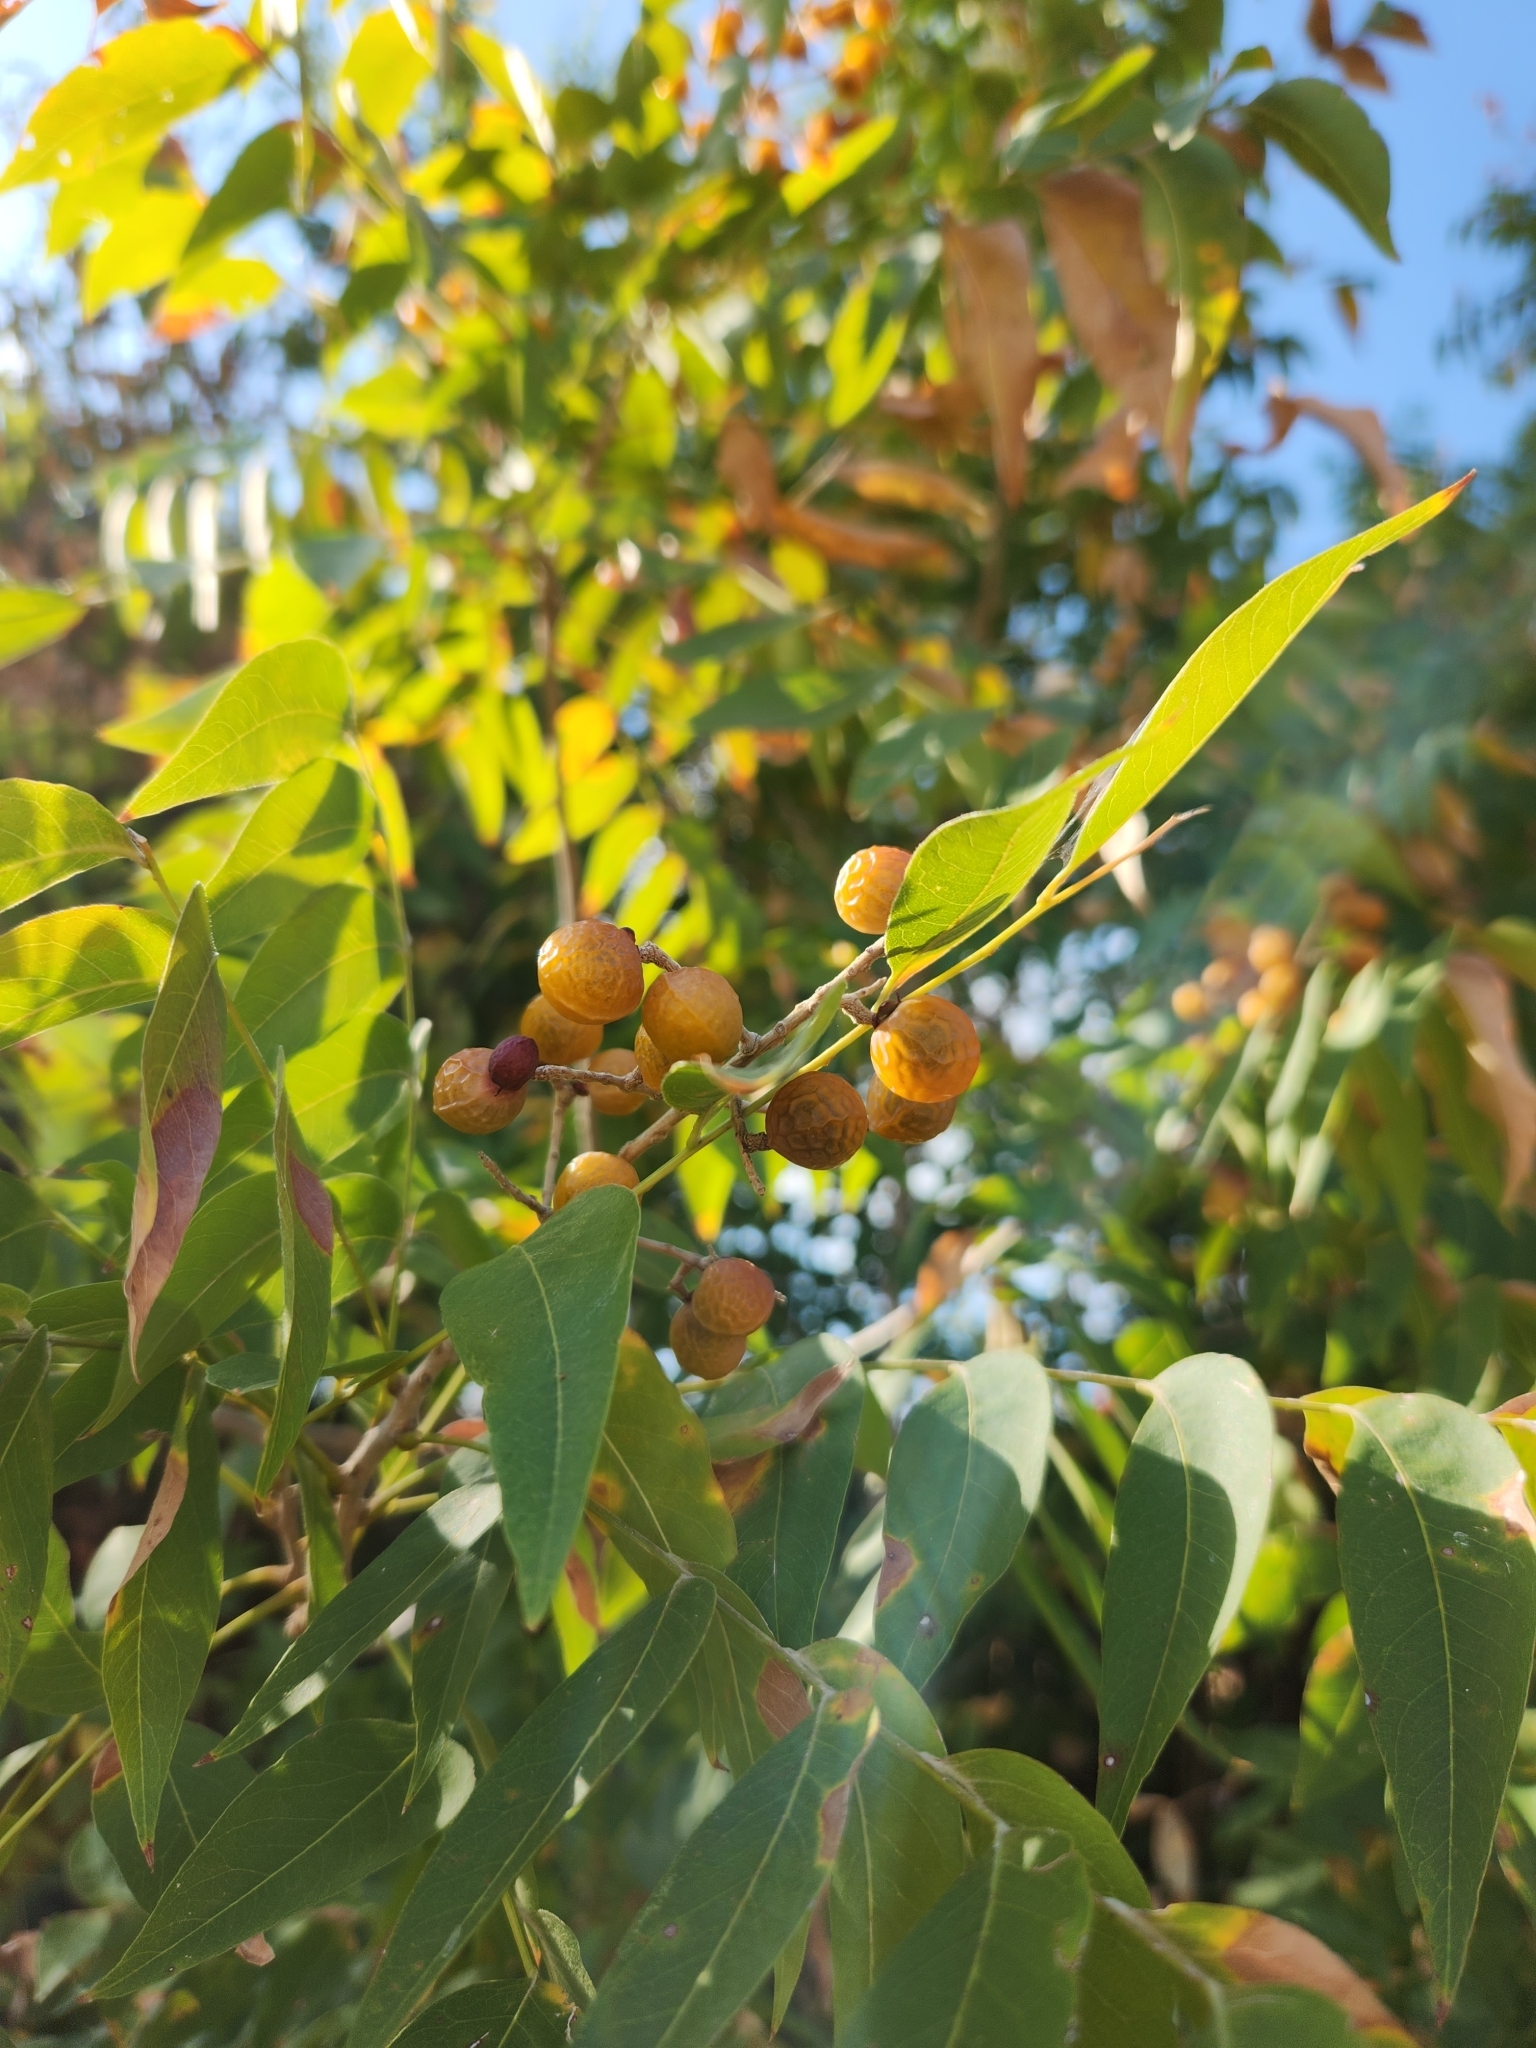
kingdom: Plantae
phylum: Tracheophyta
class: Magnoliopsida
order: Sapindales
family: Sapindaceae
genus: Sapindus
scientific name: Sapindus drummondii
